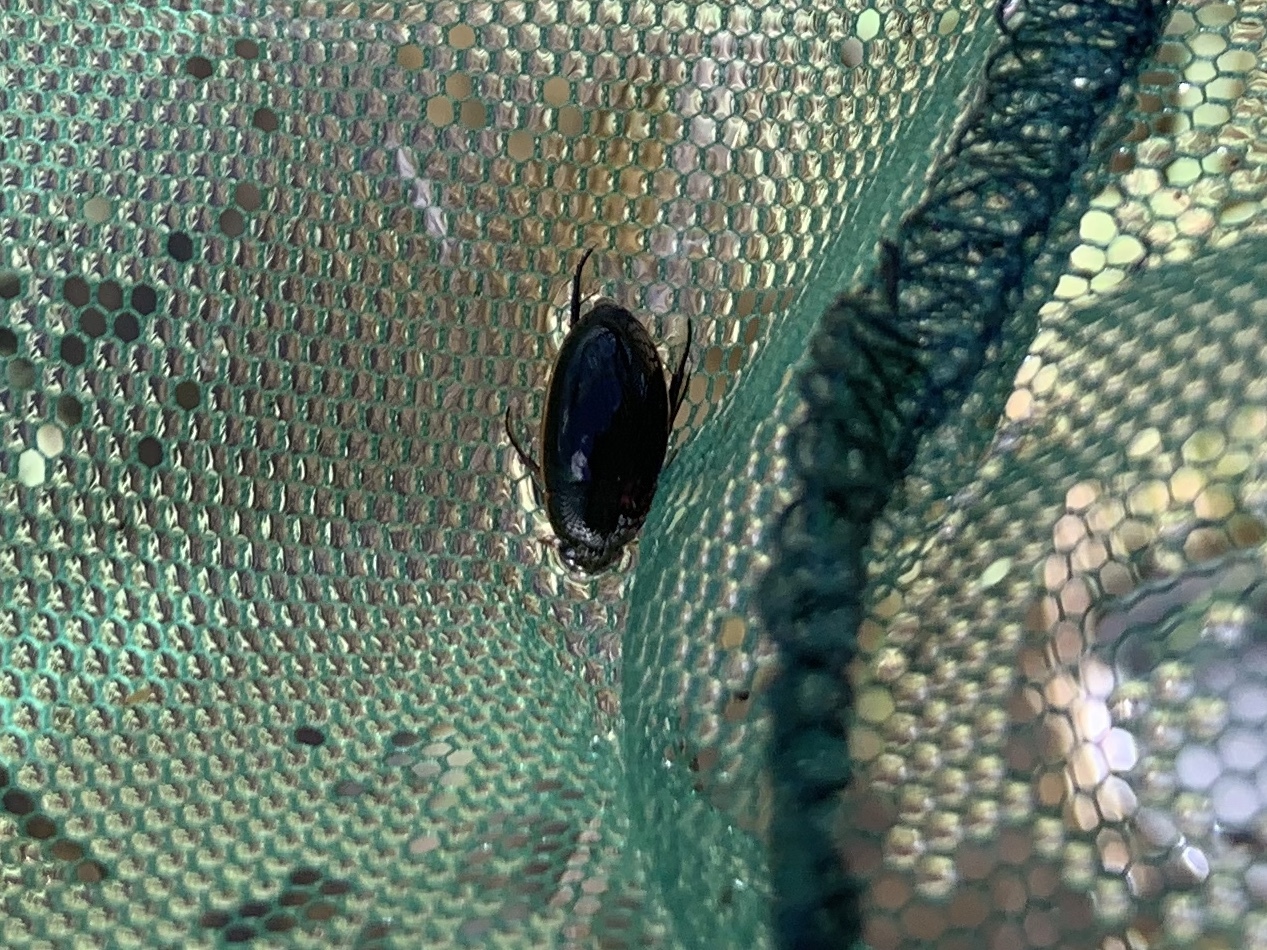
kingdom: Animalia
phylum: Arthropoda
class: Insecta
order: Coleoptera
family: Hydrophilidae
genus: Tropisternus
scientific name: Tropisternus lateralis
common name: Lateral-banded water scavenger beetle
